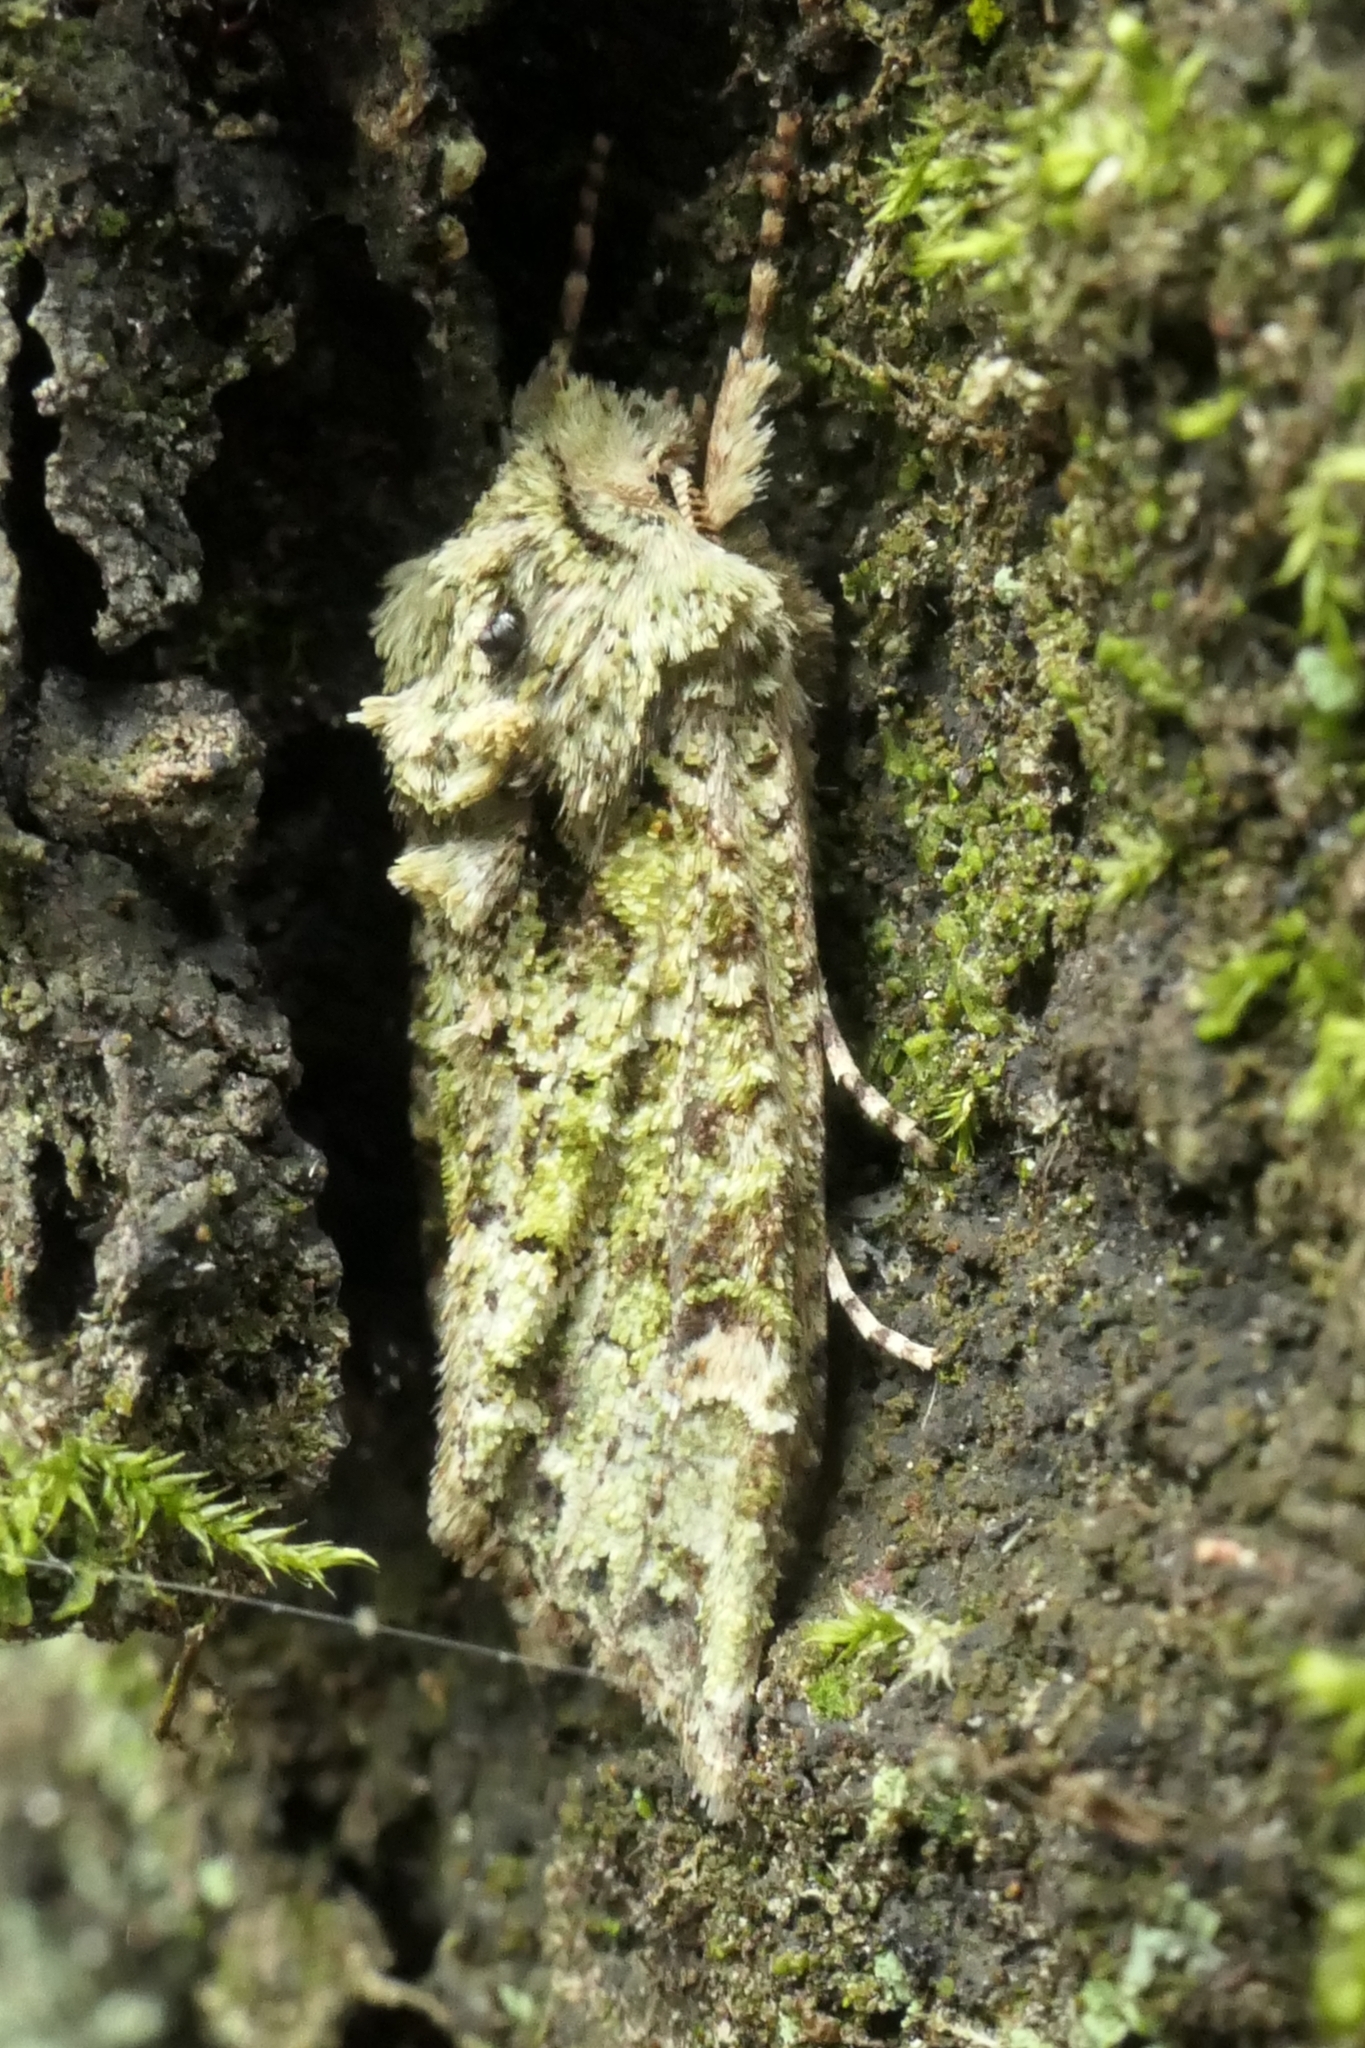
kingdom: Animalia
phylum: Arthropoda
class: Insecta
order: Lepidoptera
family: Noctuidae
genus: Ichneutica
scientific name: Ichneutica
